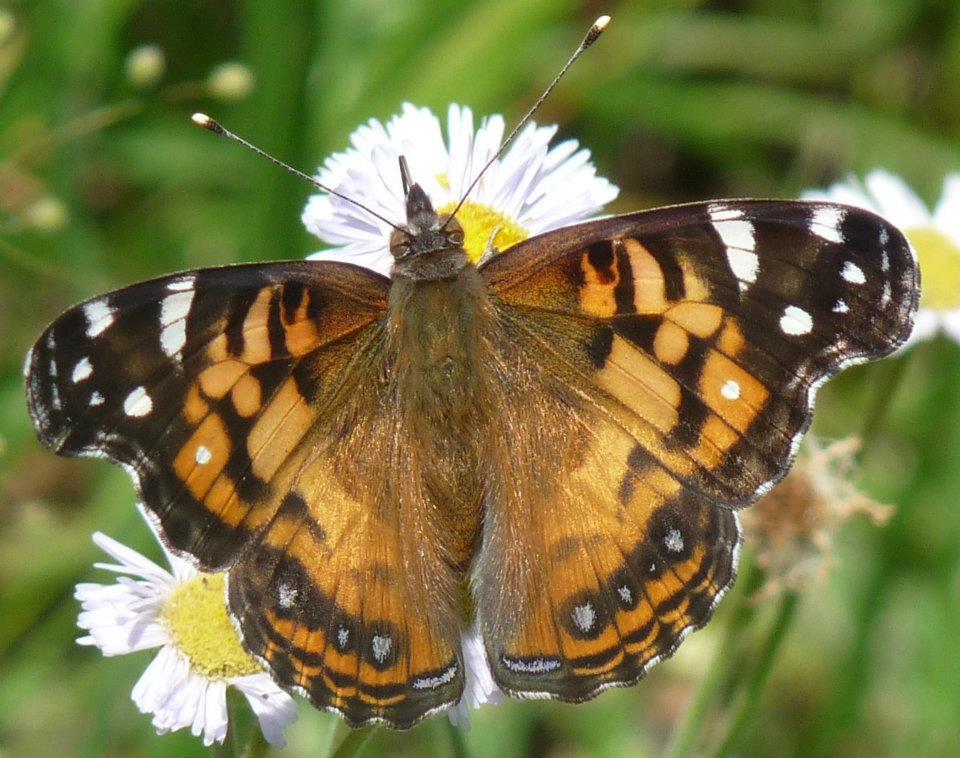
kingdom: Animalia
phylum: Arthropoda
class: Insecta
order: Lepidoptera
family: Nymphalidae
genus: Vanessa
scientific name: Vanessa virginiensis
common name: American lady
